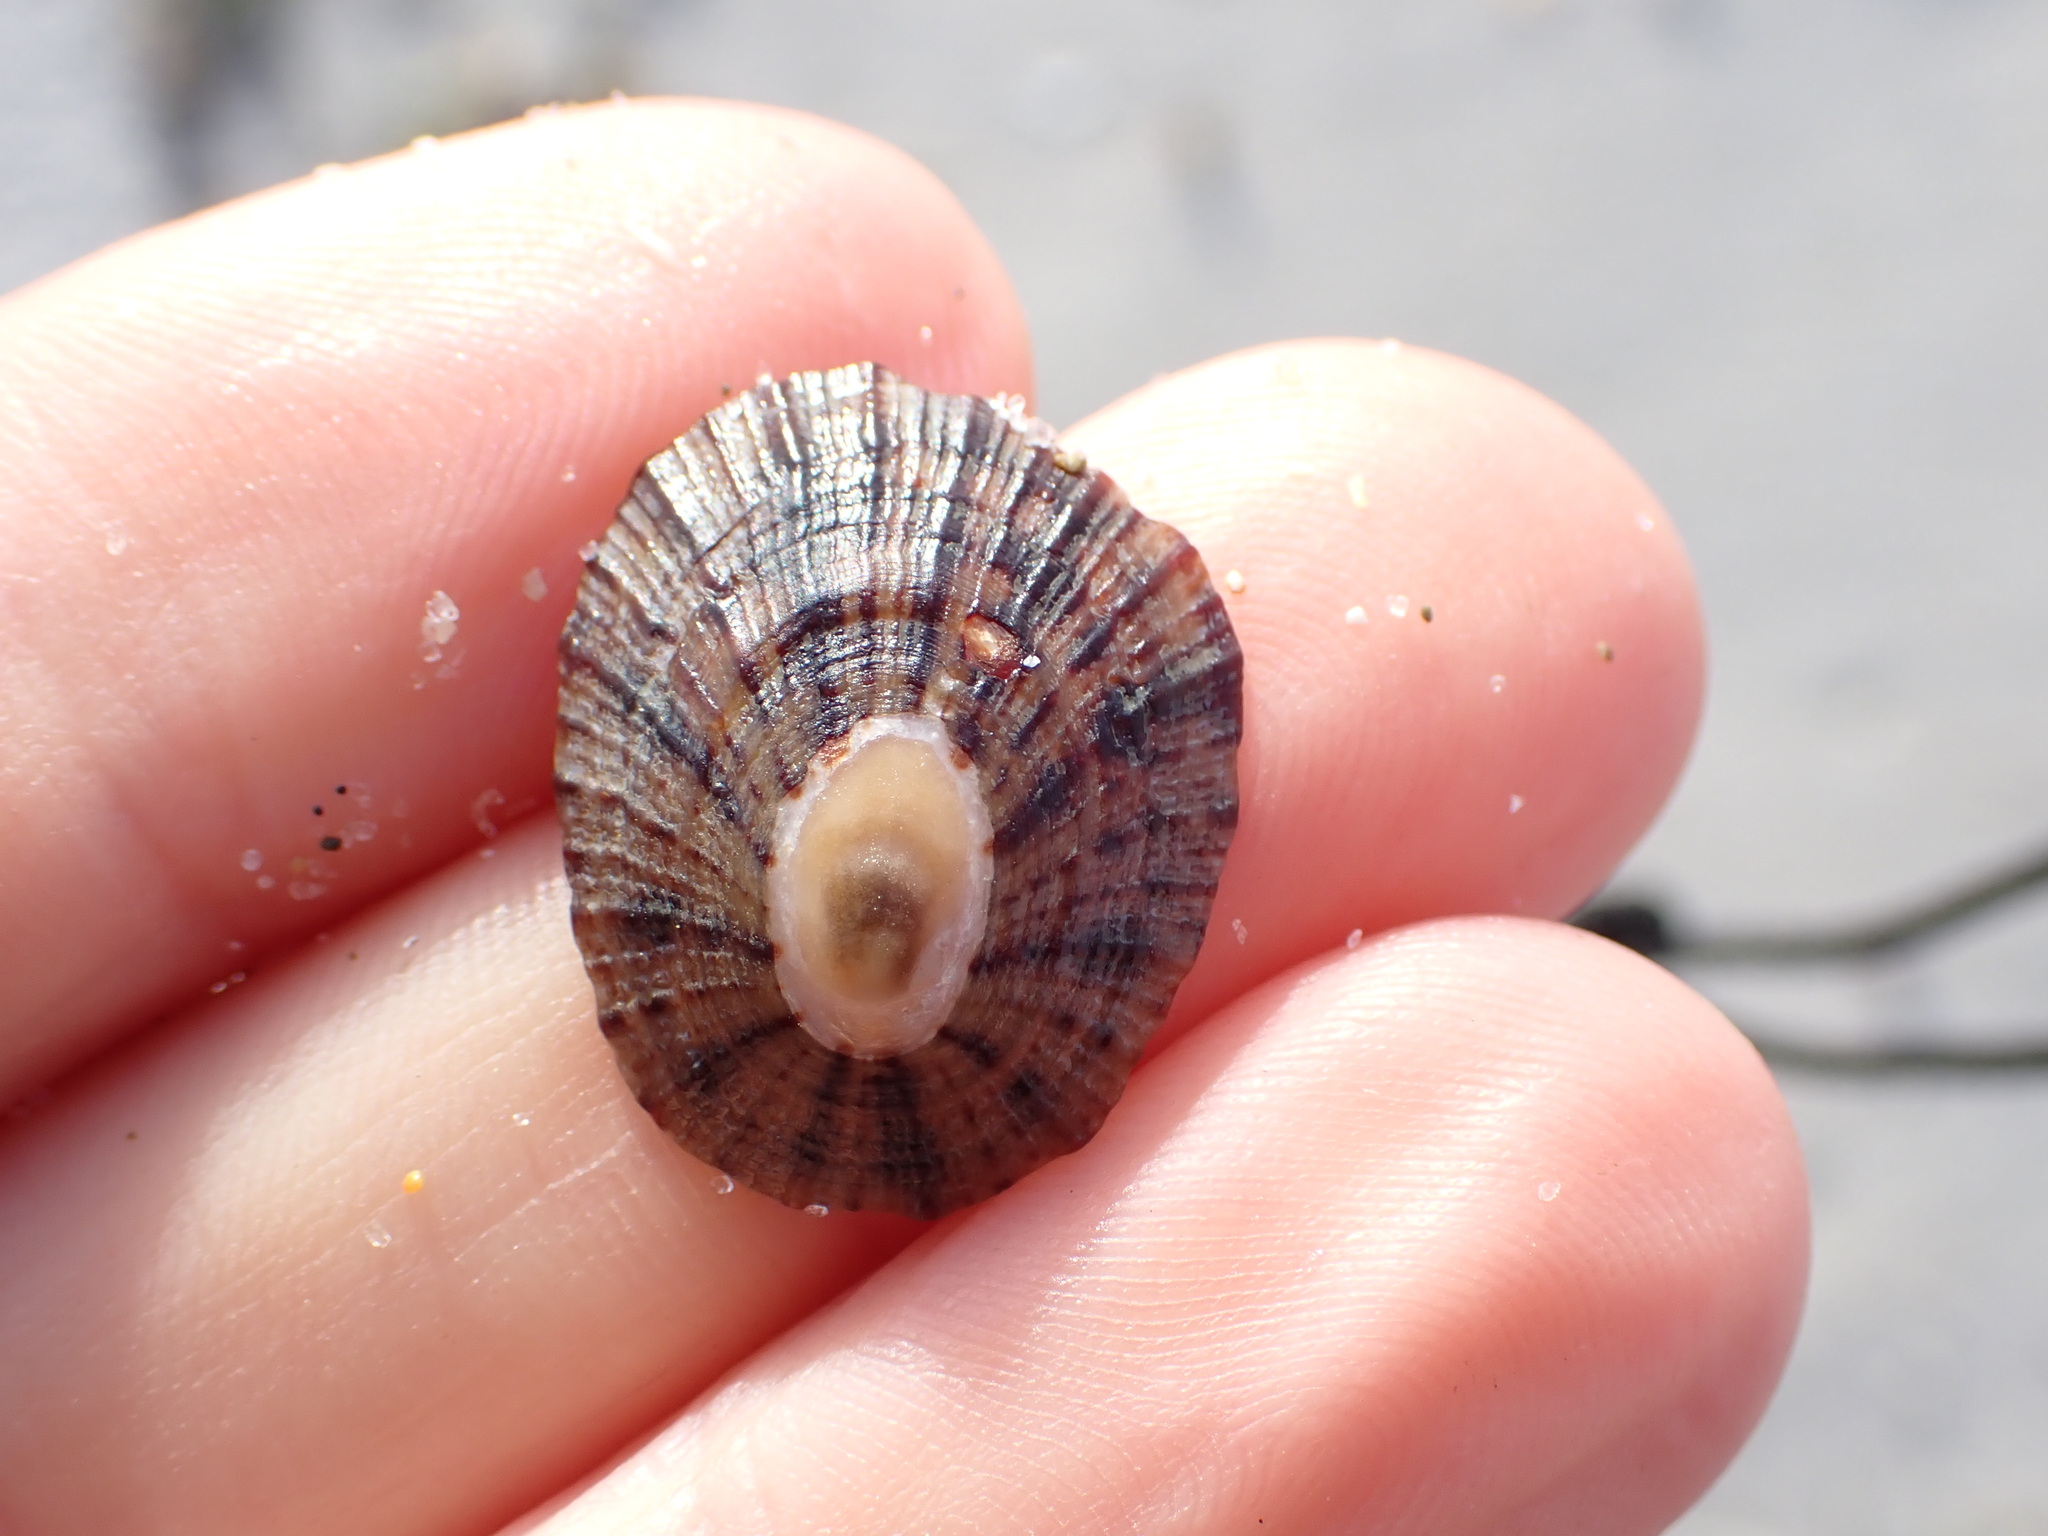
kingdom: Animalia
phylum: Mollusca
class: Gastropoda
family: Nacellidae
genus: Cellana
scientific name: Cellana radians
